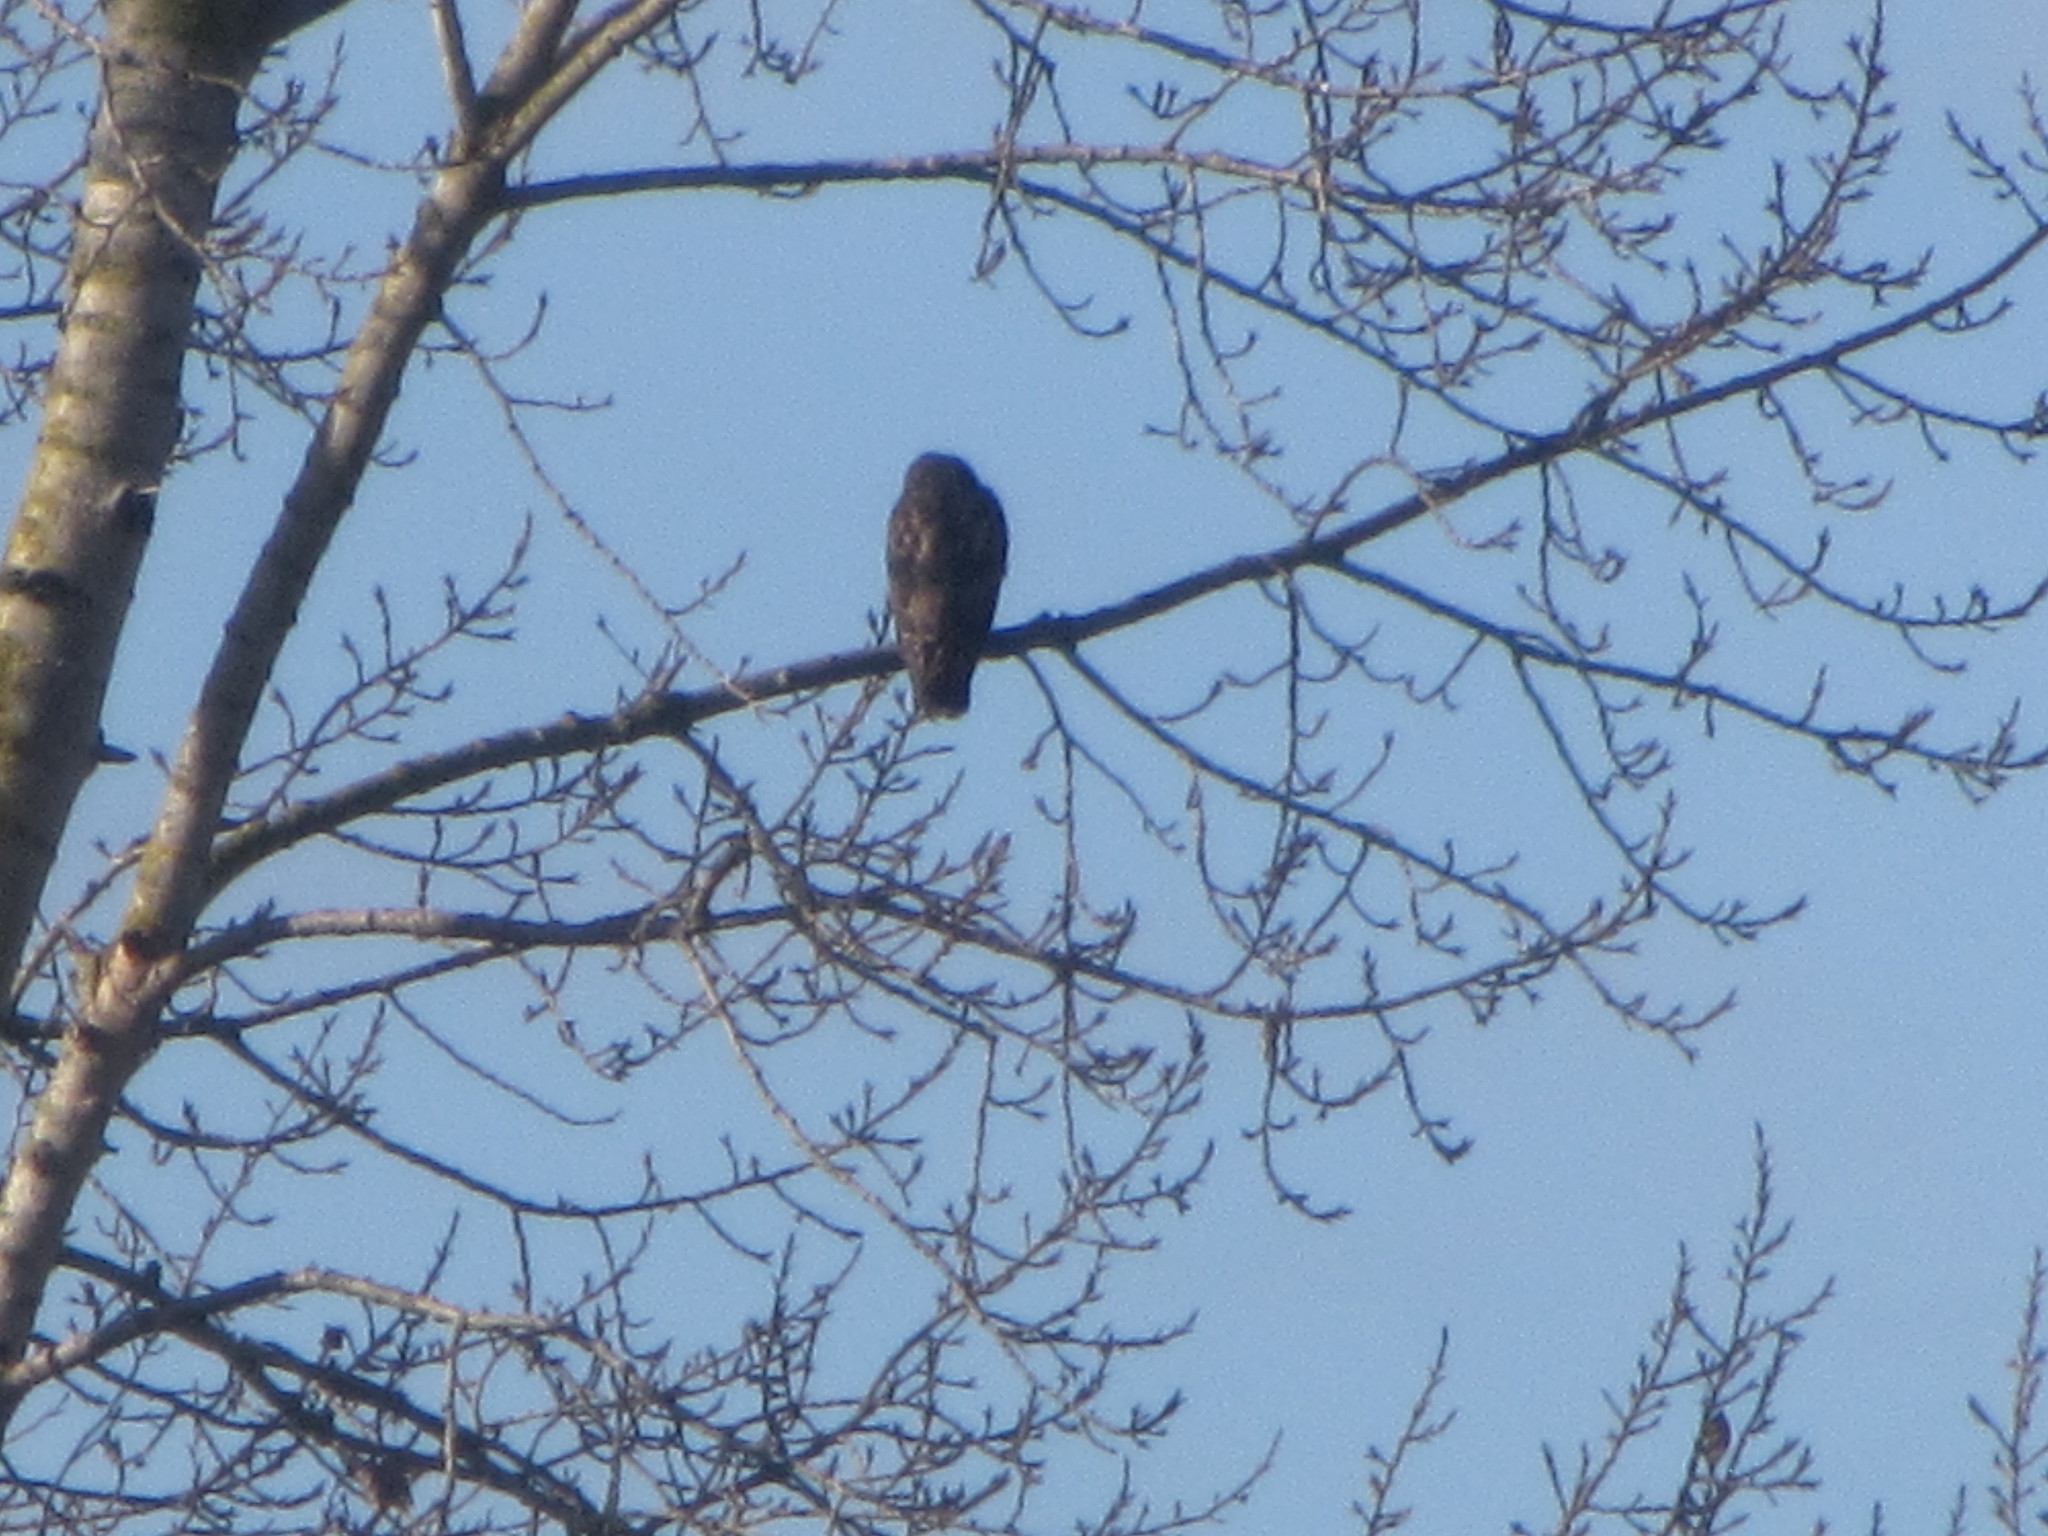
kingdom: Animalia
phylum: Chordata
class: Aves
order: Accipitriformes
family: Accipitridae
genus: Buteo
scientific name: Buteo jamaicensis
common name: Red-tailed hawk
